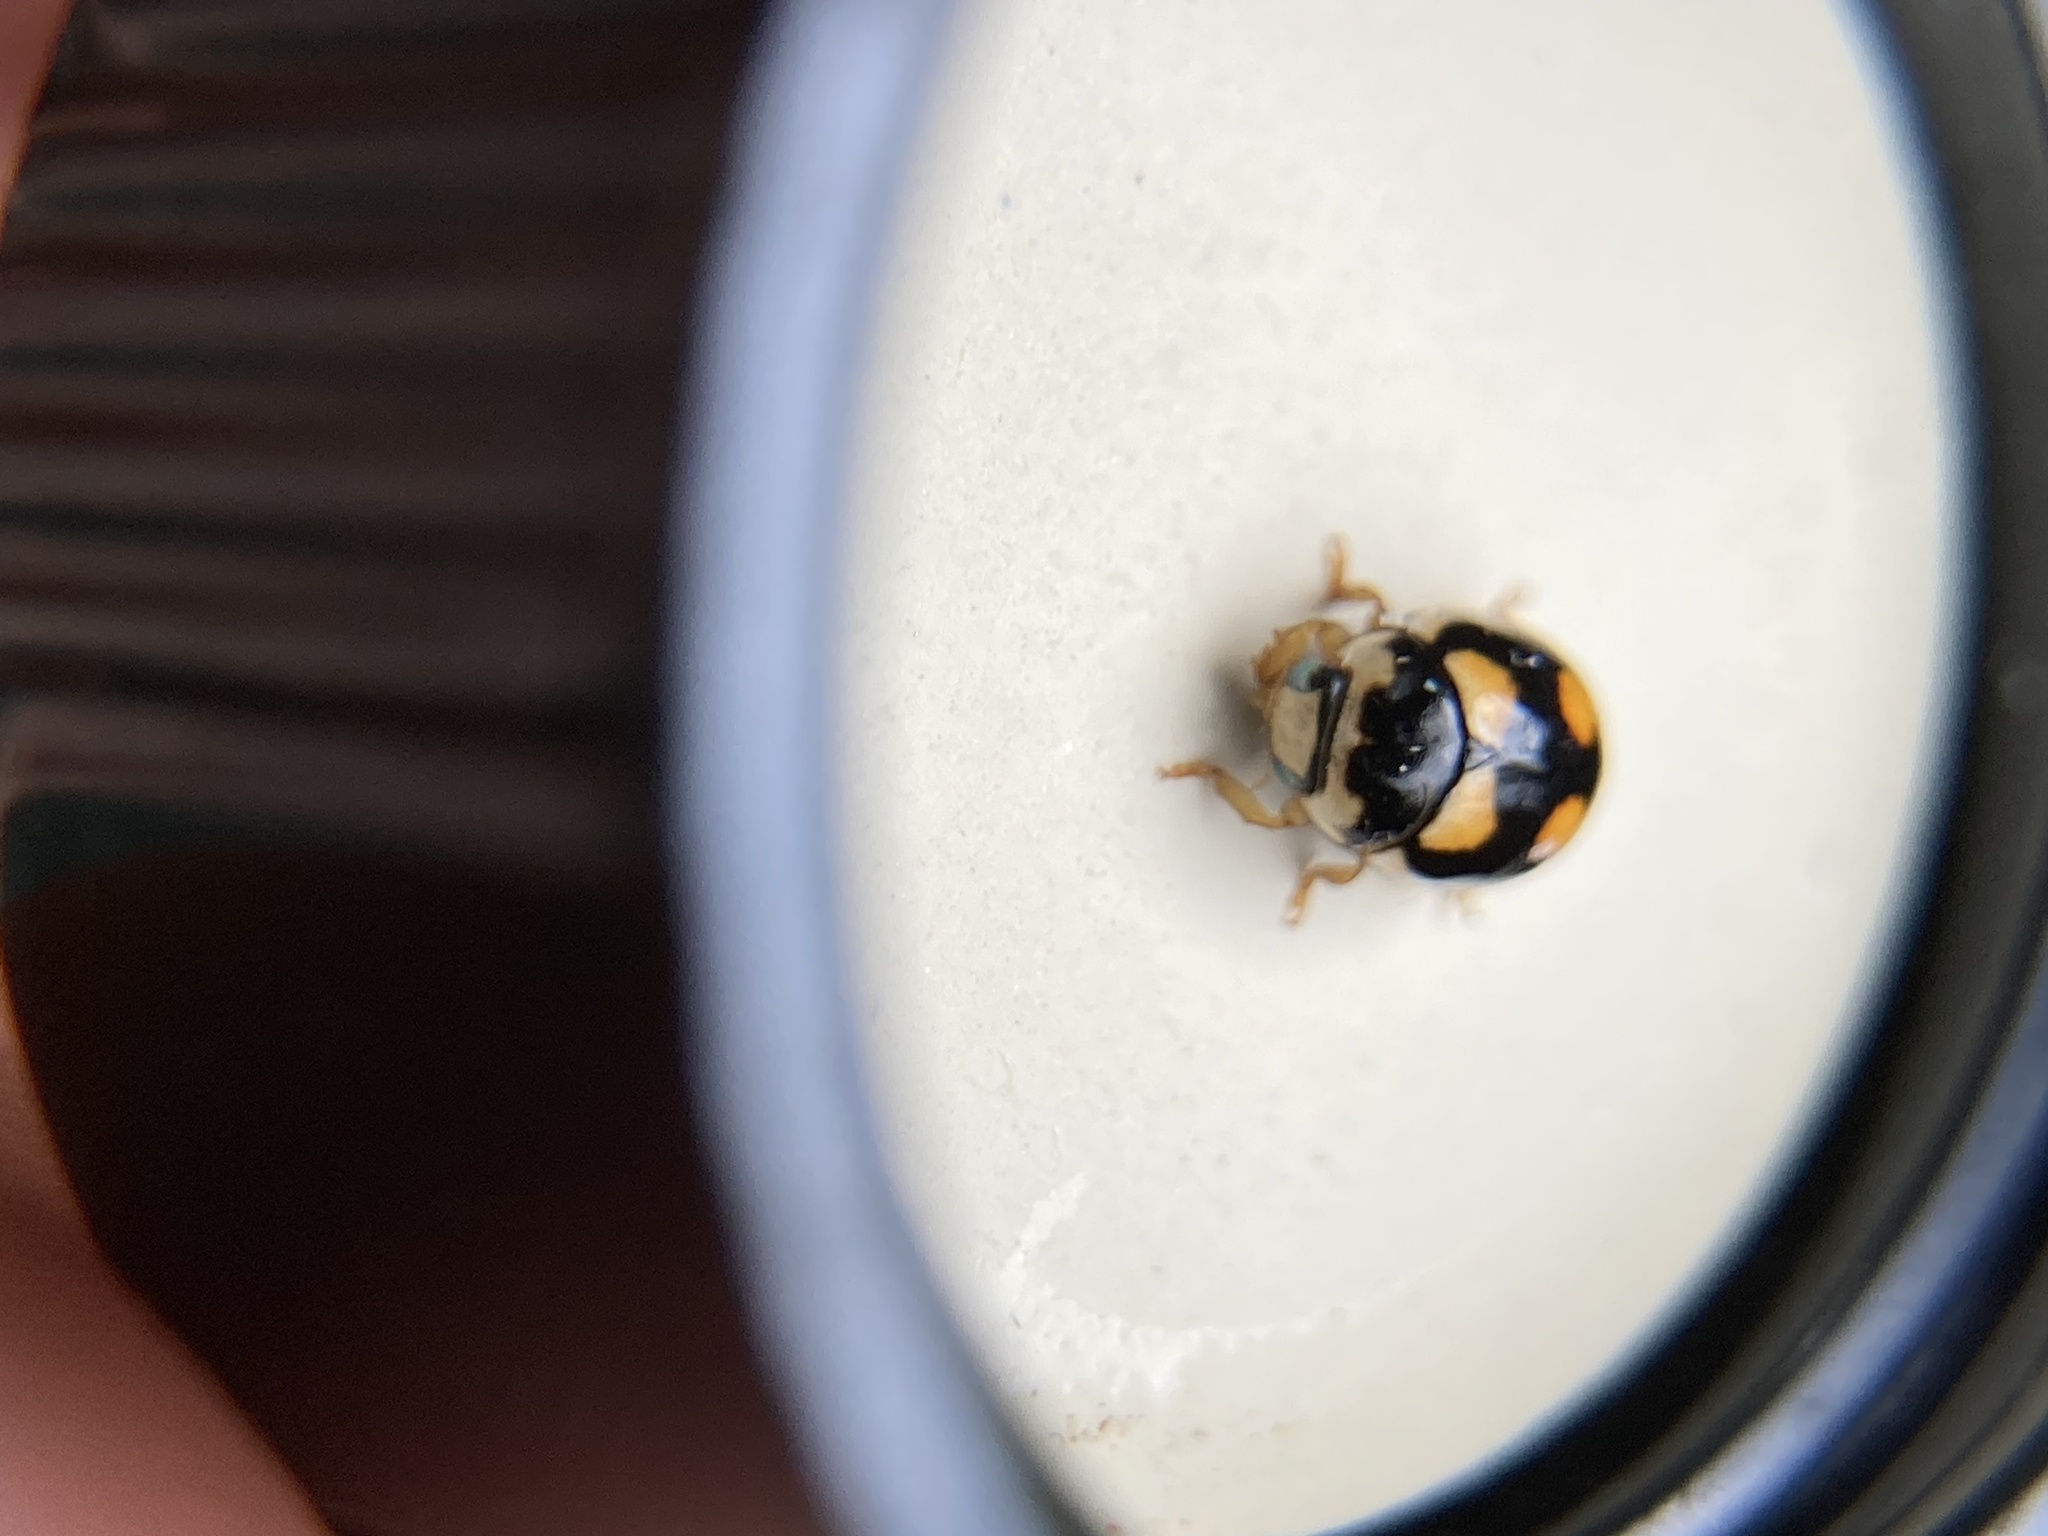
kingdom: Animalia
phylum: Arthropoda
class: Insecta
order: Coleoptera
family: Coccinellidae
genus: Brachiacantha
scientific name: Brachiacantha ursina
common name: Ursine spurleg lady beetle
